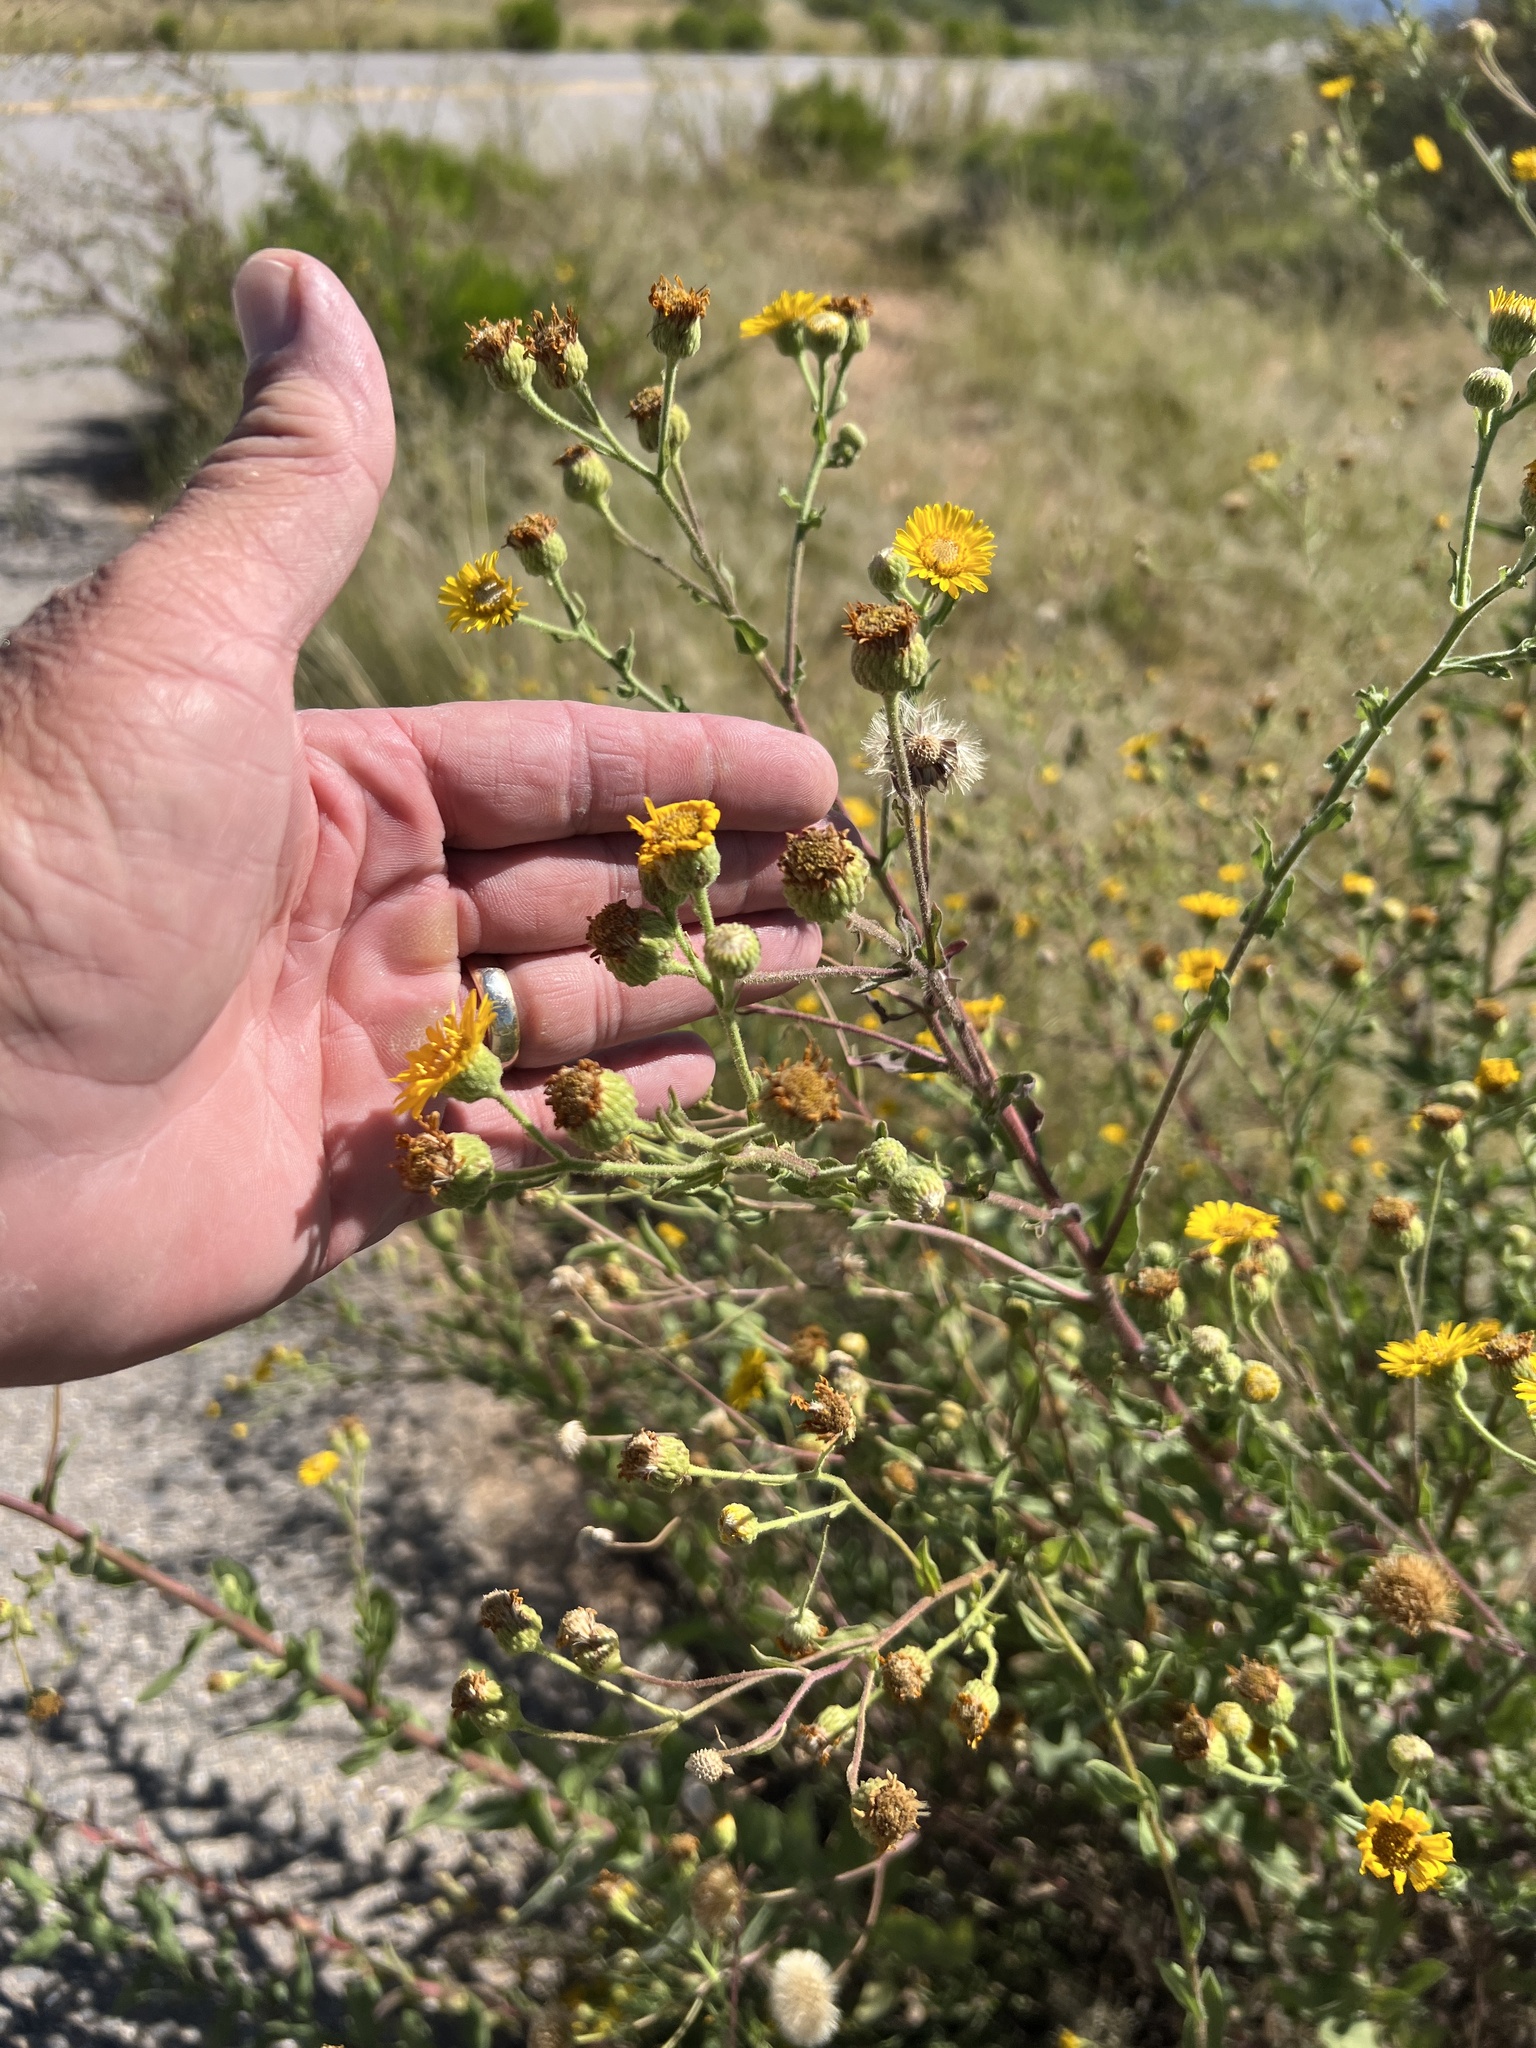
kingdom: Plantae
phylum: Tracheophyta
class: Magnoliopsida
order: Asterales
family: Asteraceae
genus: Heterotheca
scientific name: Heterotheca subaxillaris
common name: Camphorweed
